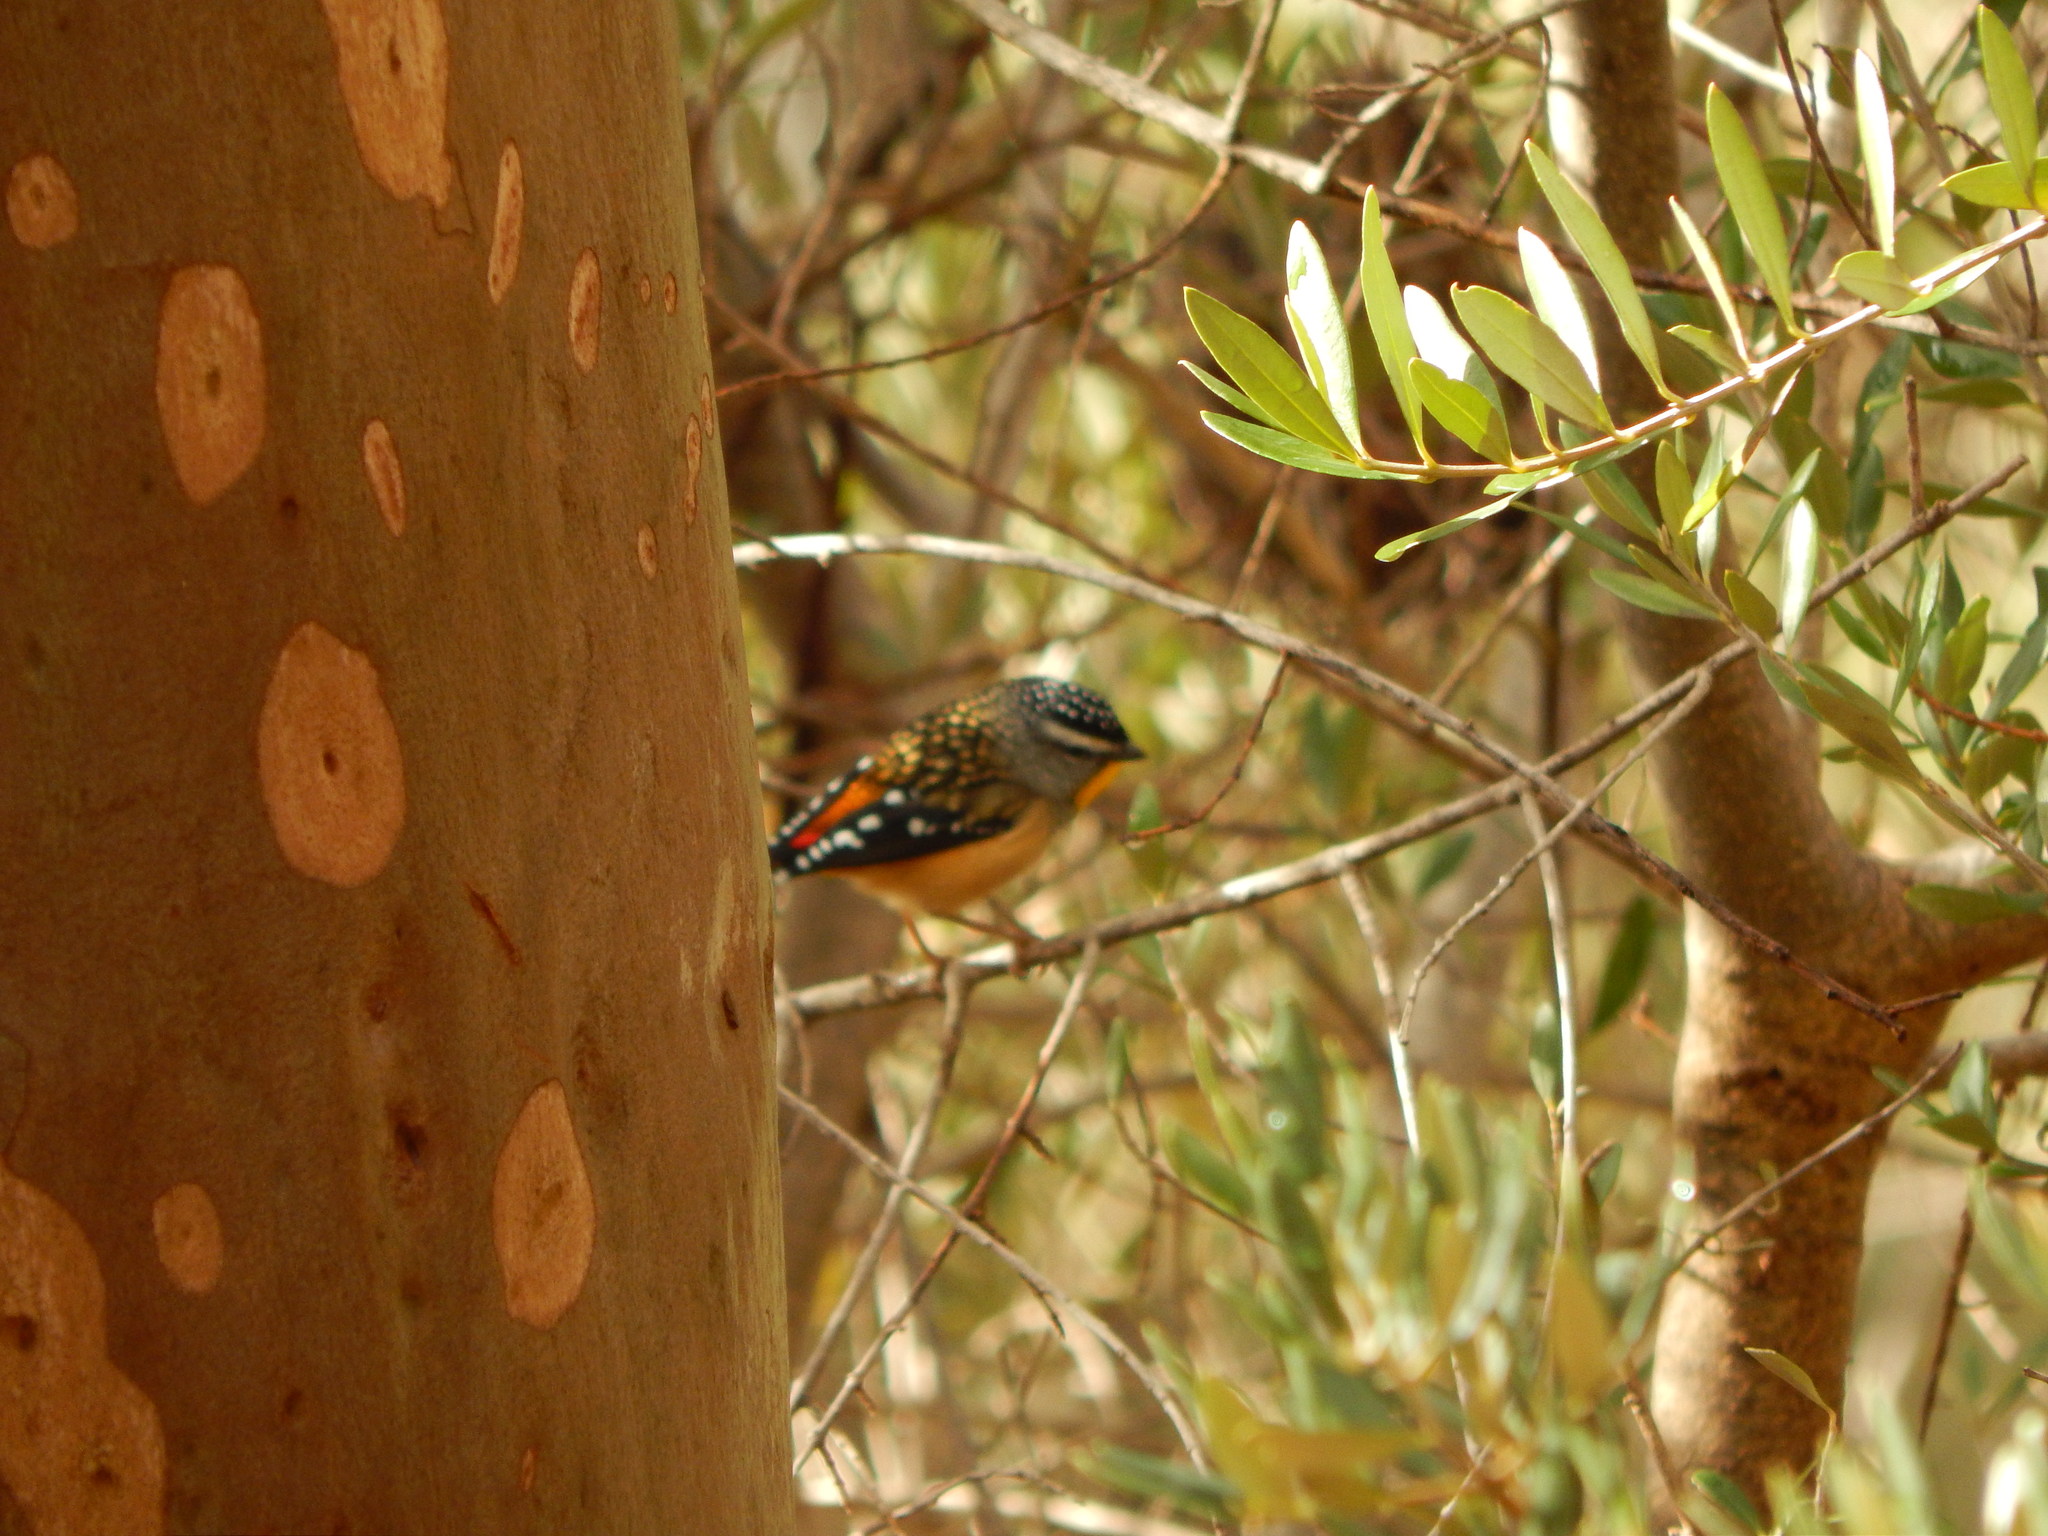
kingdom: Animalia
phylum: Chordata
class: Aves
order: Passeriformes
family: Pardalotidae
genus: Pardalotus
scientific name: Pardalotus punctatus
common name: Spotted pardalote
